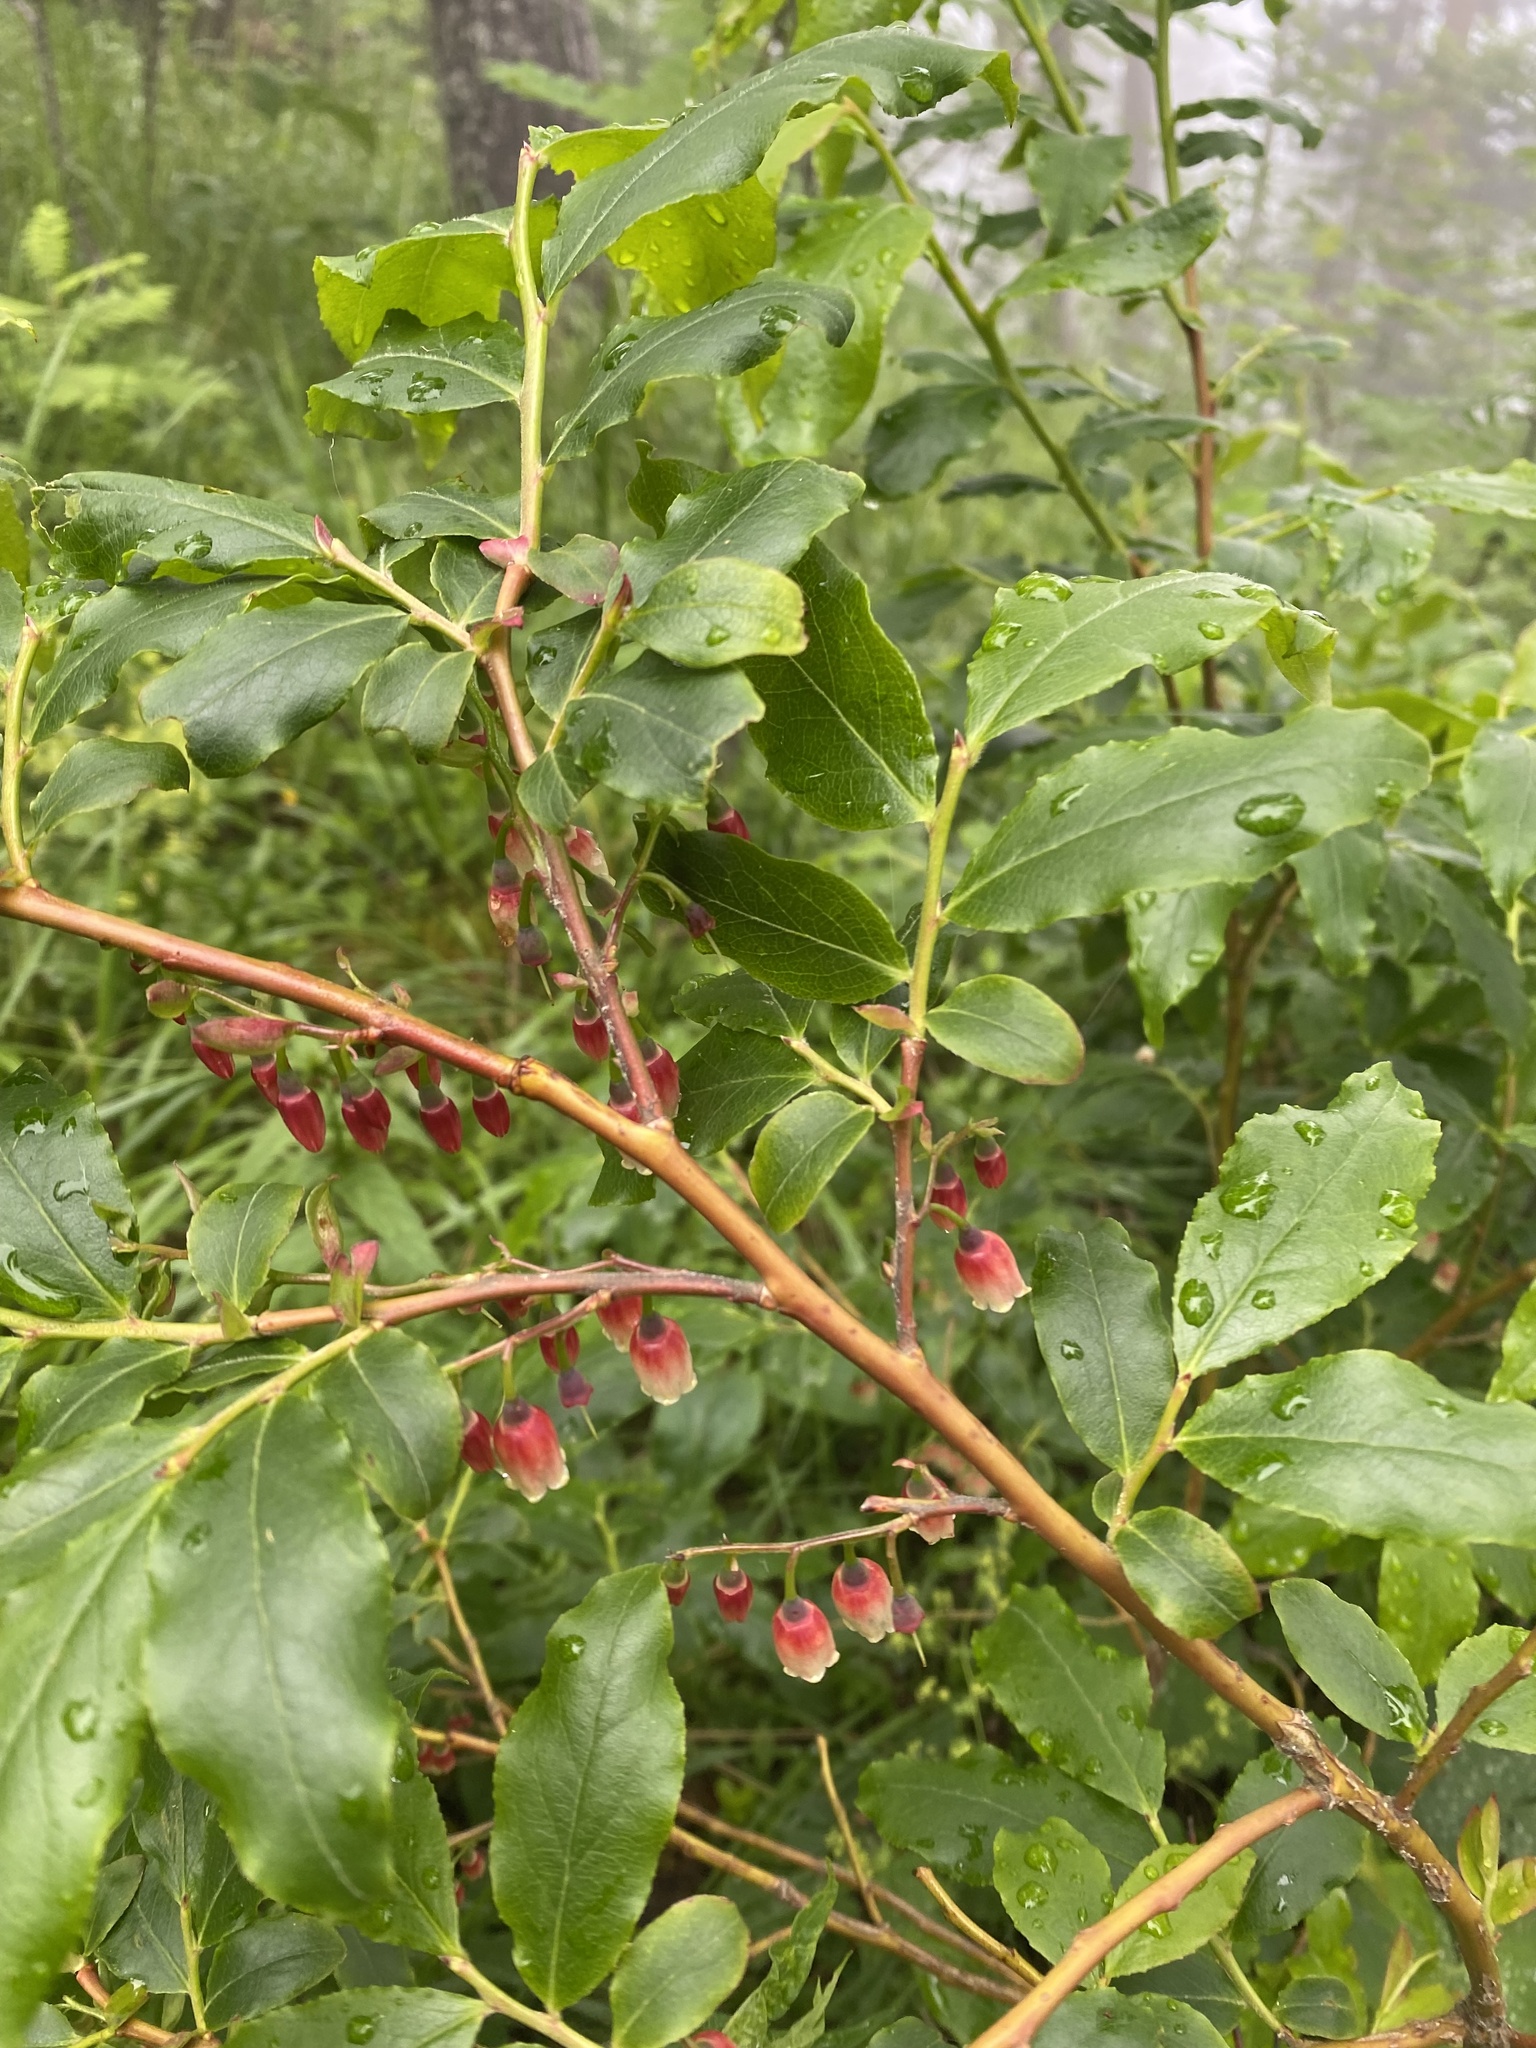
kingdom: Plantae
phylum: Tracheophyta
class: Magnoliopsida
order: Ericales
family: Ericaceae
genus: Vaccinium
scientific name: Vaccinium arctostaphylos
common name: Caucasian whortleberry
